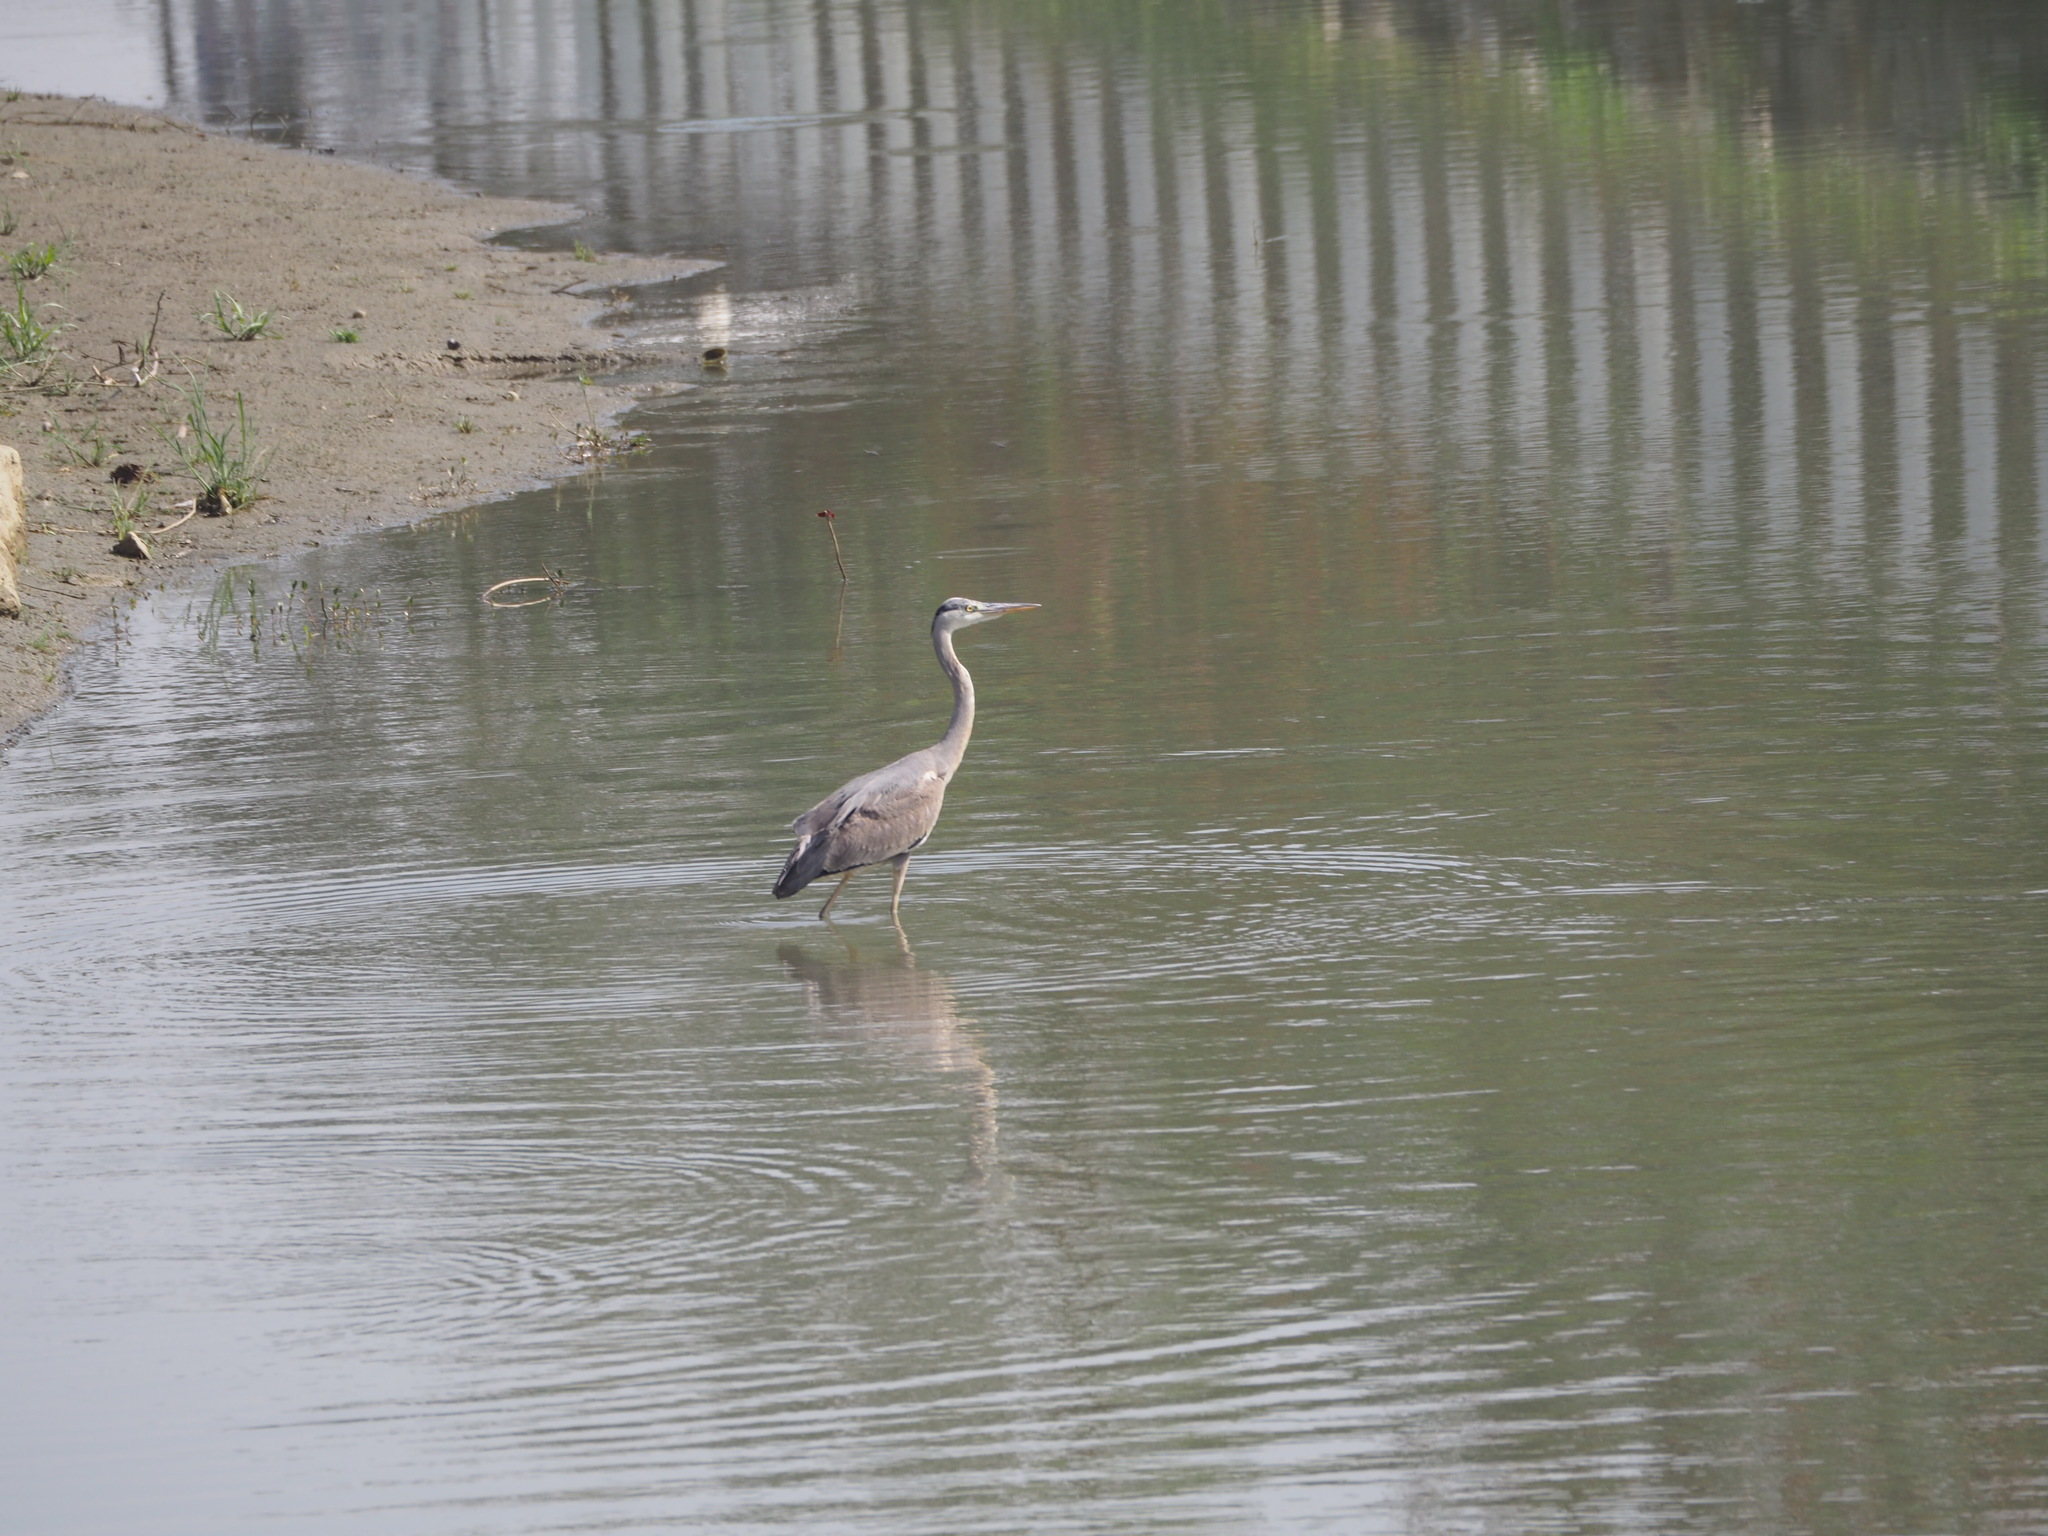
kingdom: Animalia
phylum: Chordata
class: Aves
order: Pelecaniformes
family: Ardeidae
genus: Ardea
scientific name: Ardea cinerea
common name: Grey heron
